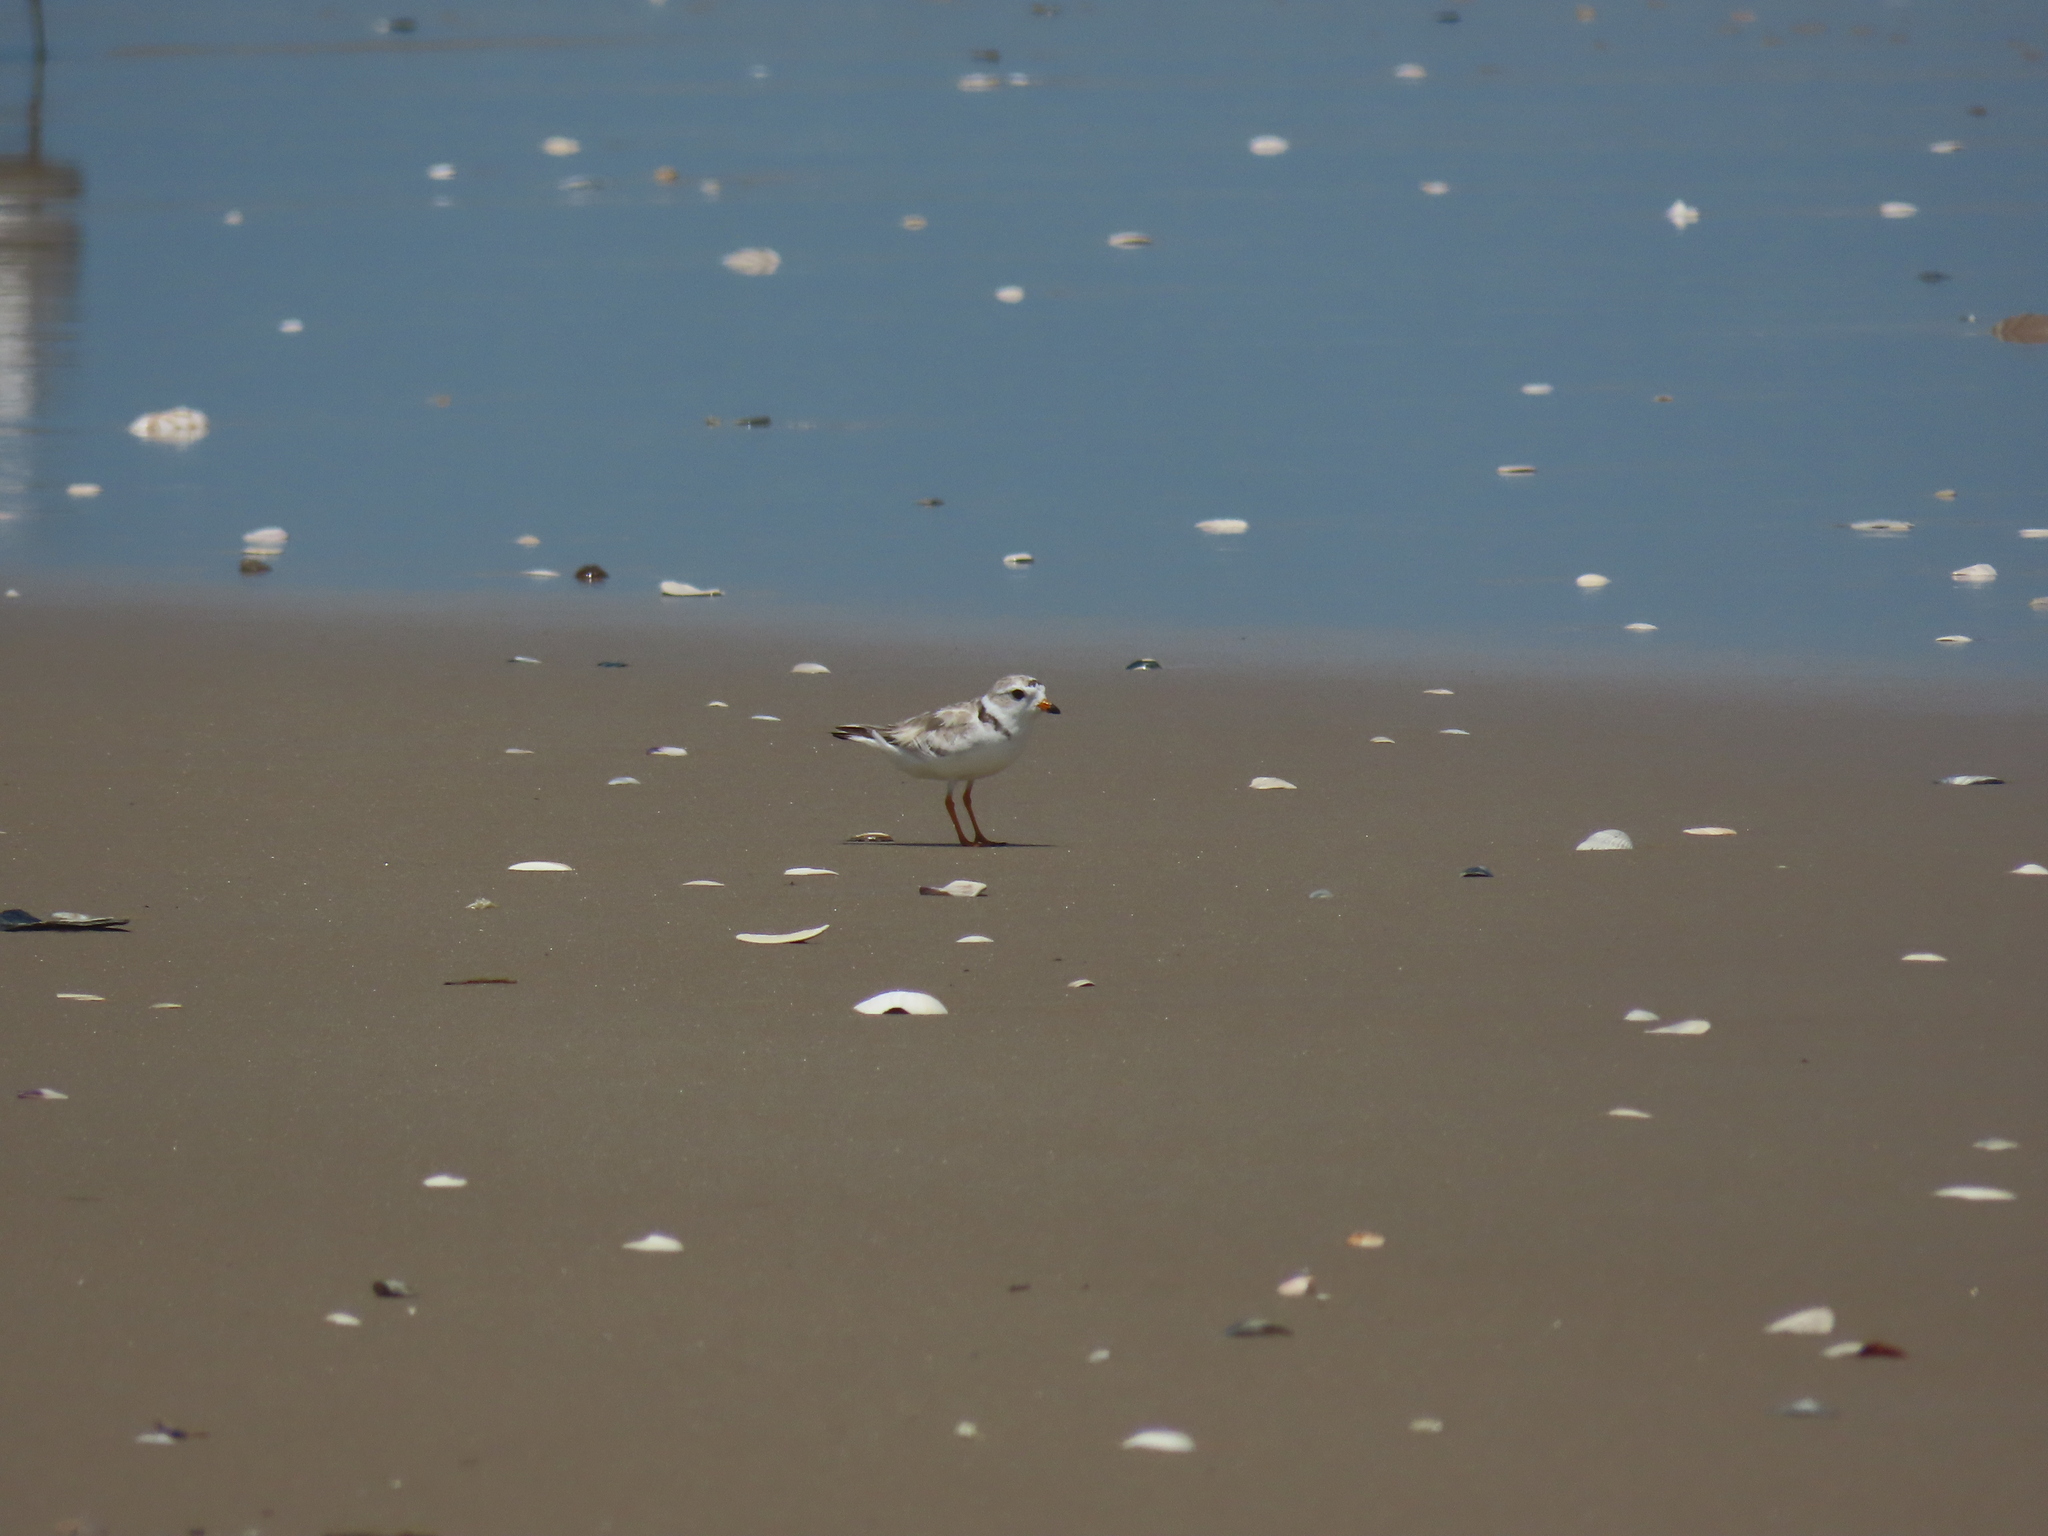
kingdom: Animalia
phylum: Chordata
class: Aves
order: Charadriiformes
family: Charadriidae
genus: Charadrius
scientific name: Charadrius melodus
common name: Piping plover
